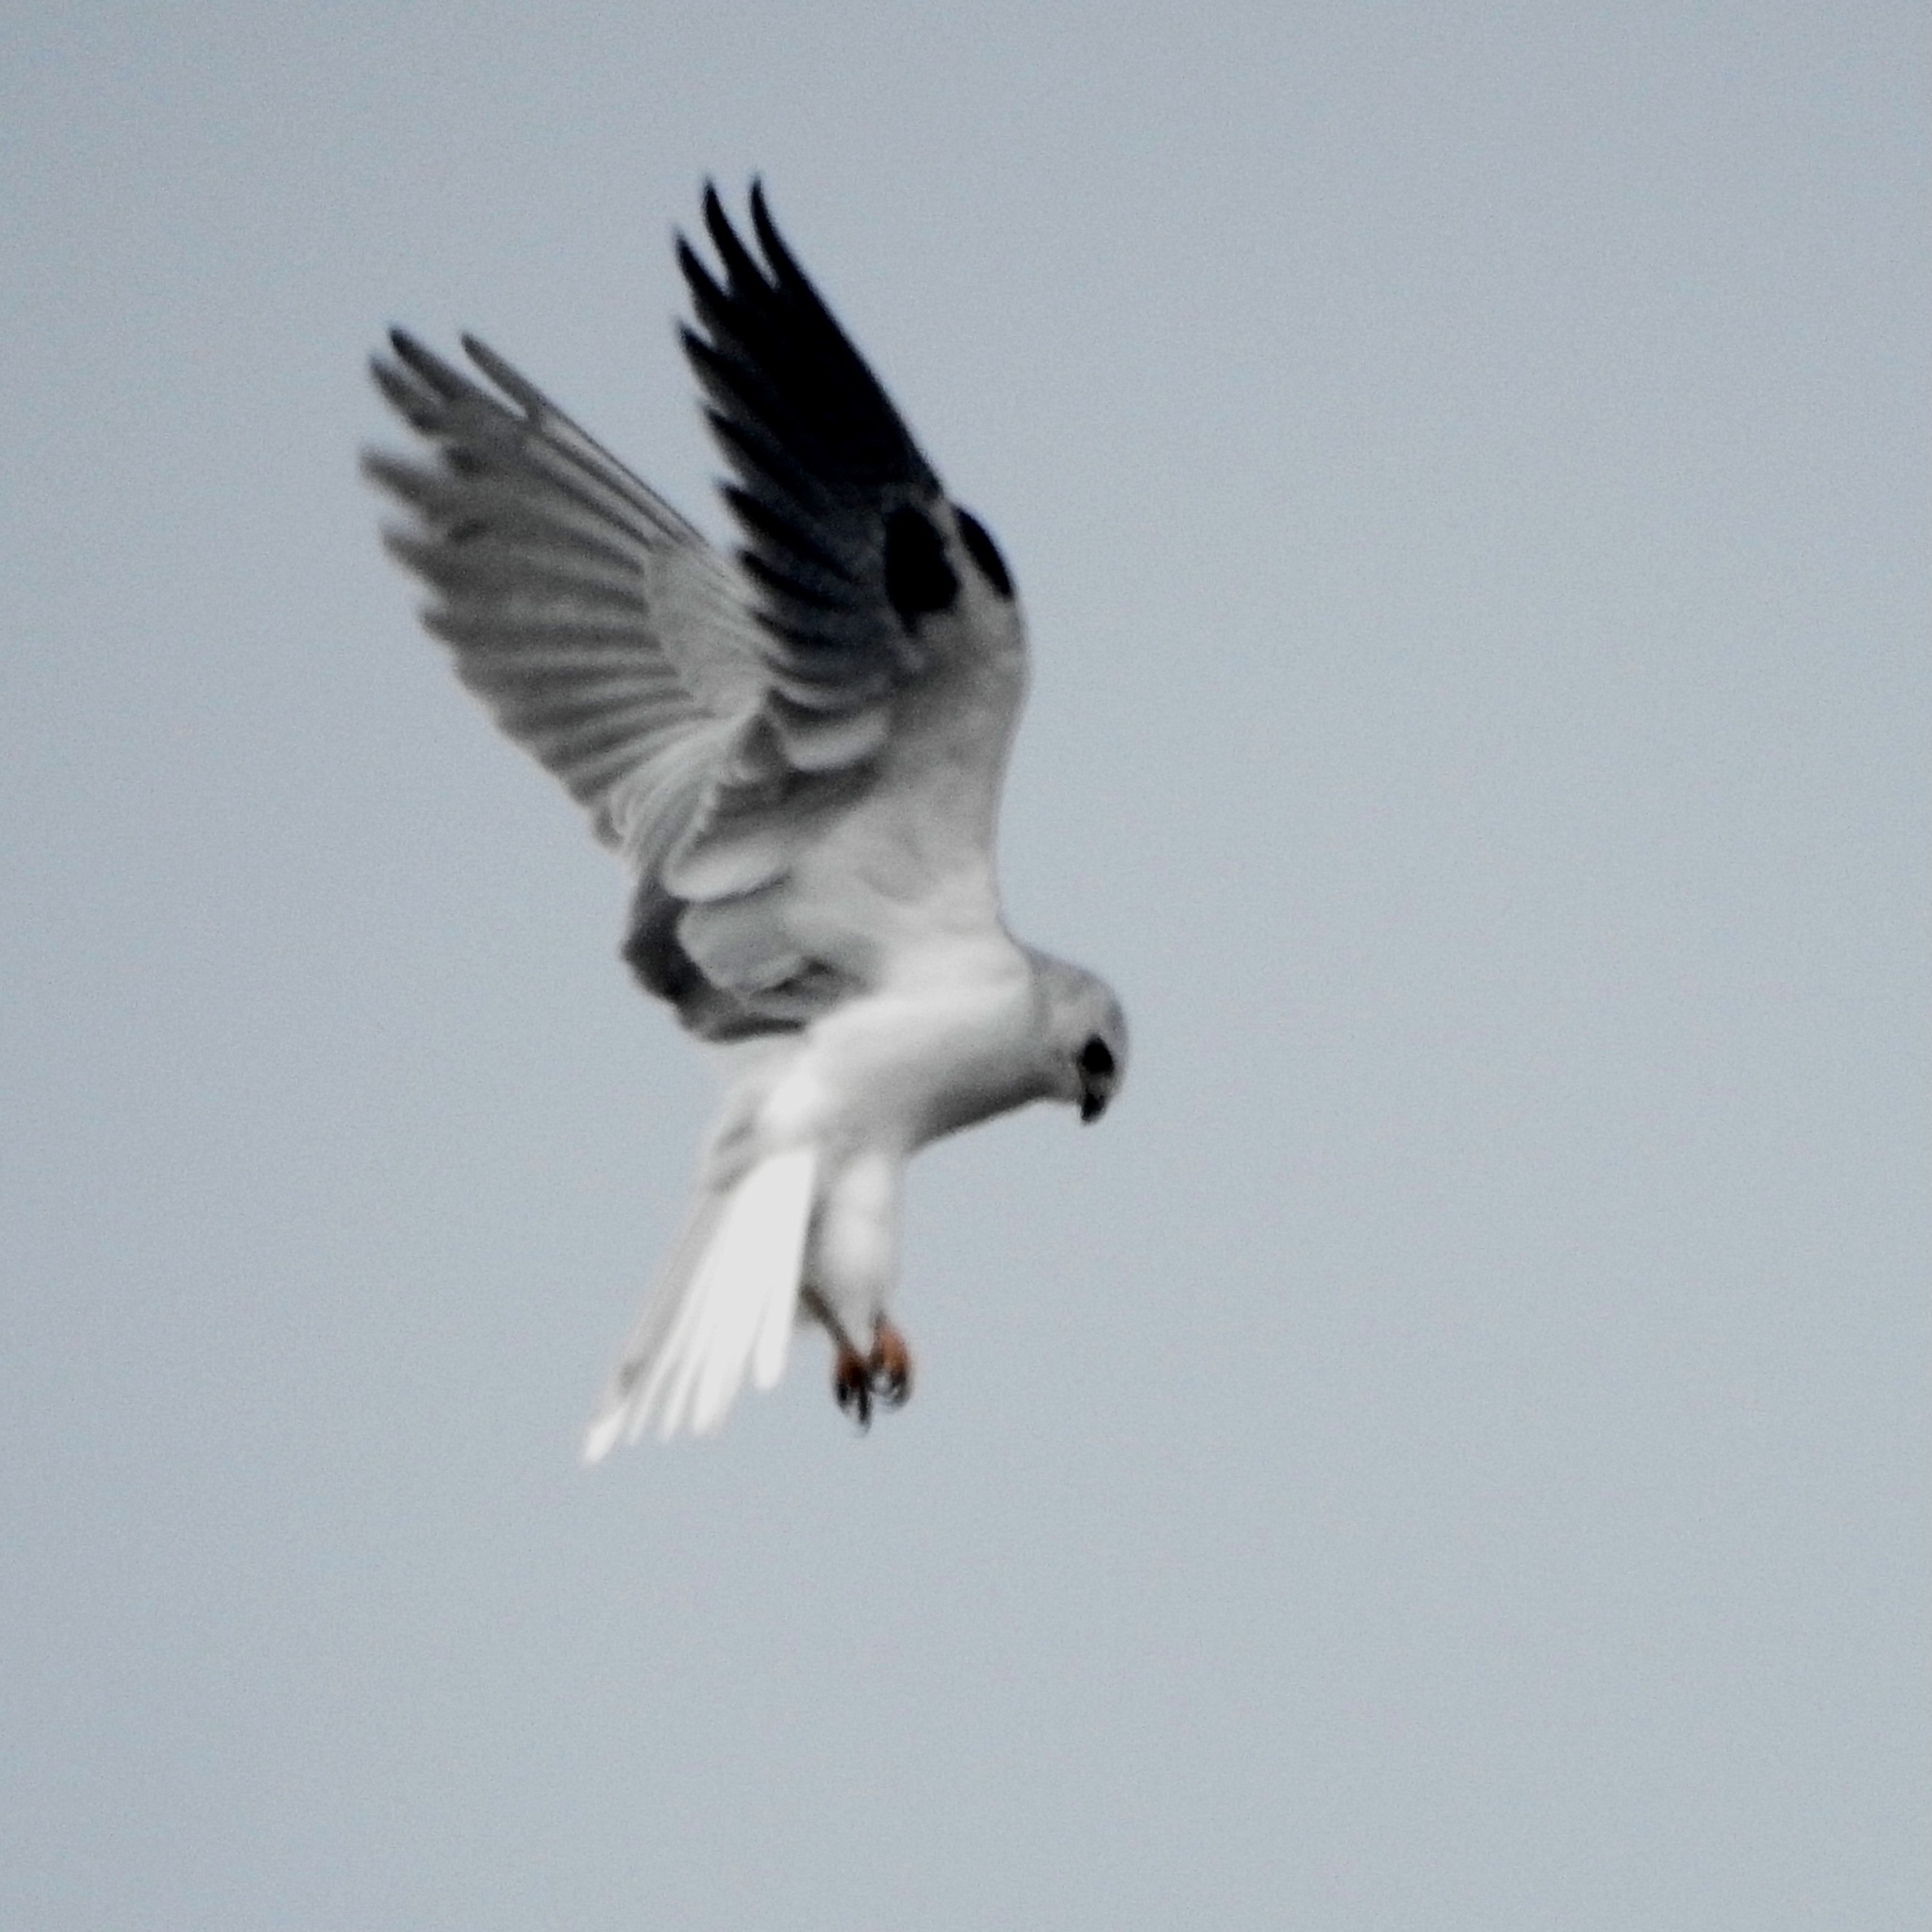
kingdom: Animalia
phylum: Chordata
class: Aves
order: Accipitriformes
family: Accipitridae
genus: Elanus
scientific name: Elanus leucurus
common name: White-tailed kite
